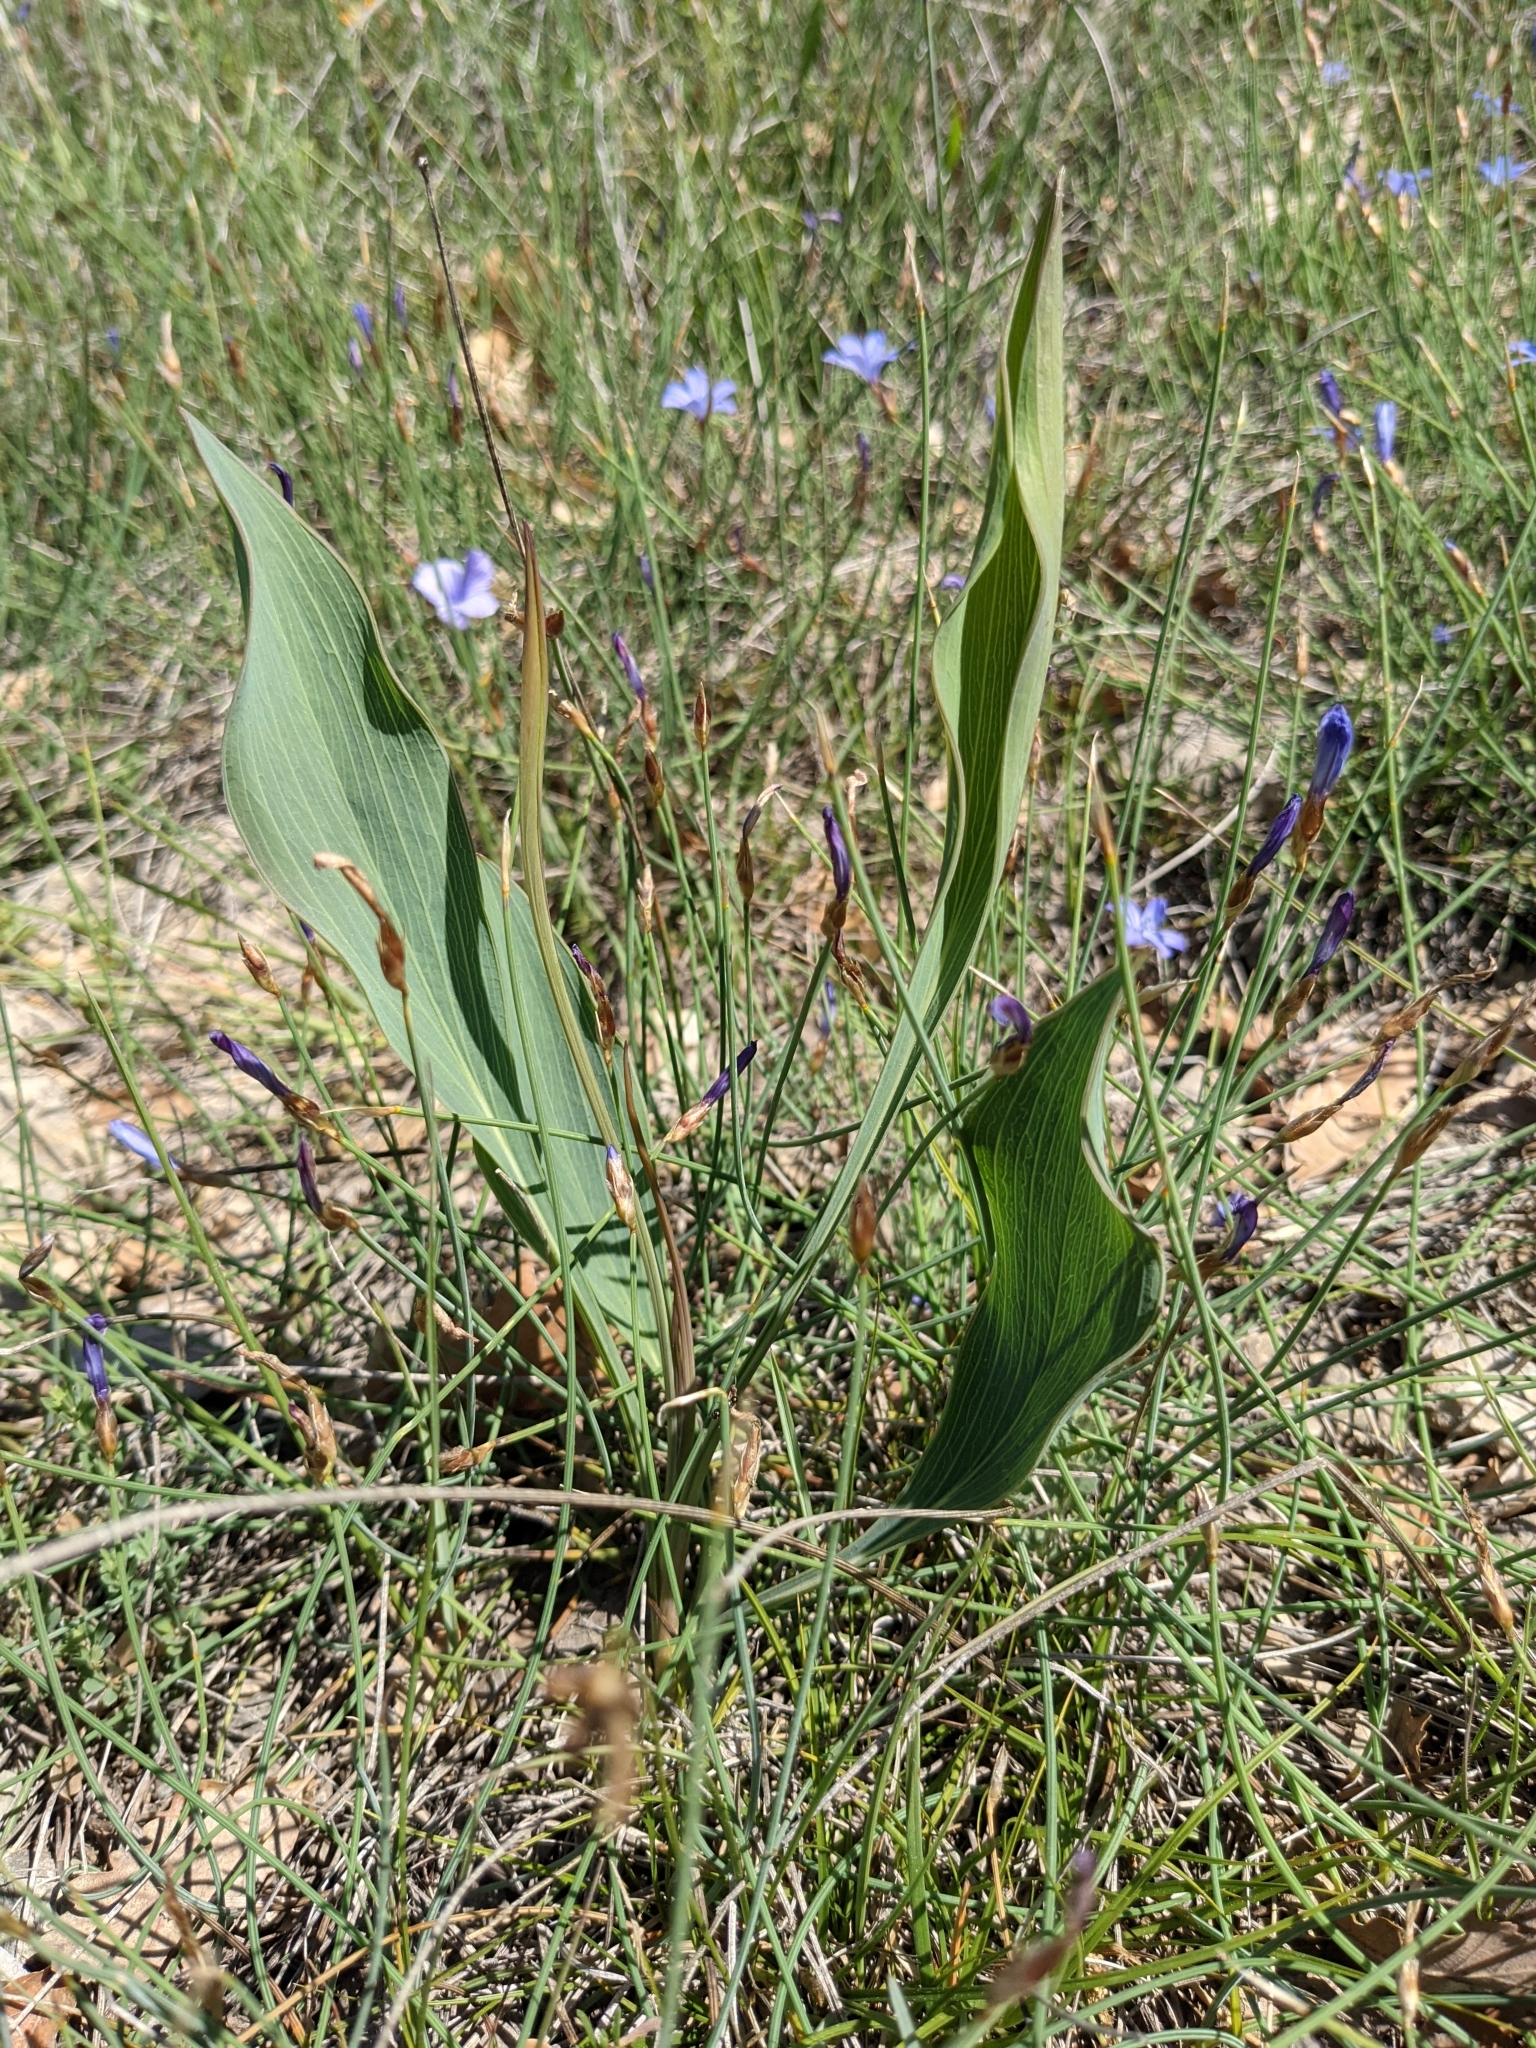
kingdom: Plantae
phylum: Tracheophyta
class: Magnoliopsida
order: Apiales
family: Apiaceae
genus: Bupleurum
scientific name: Bupleurum rigidum
